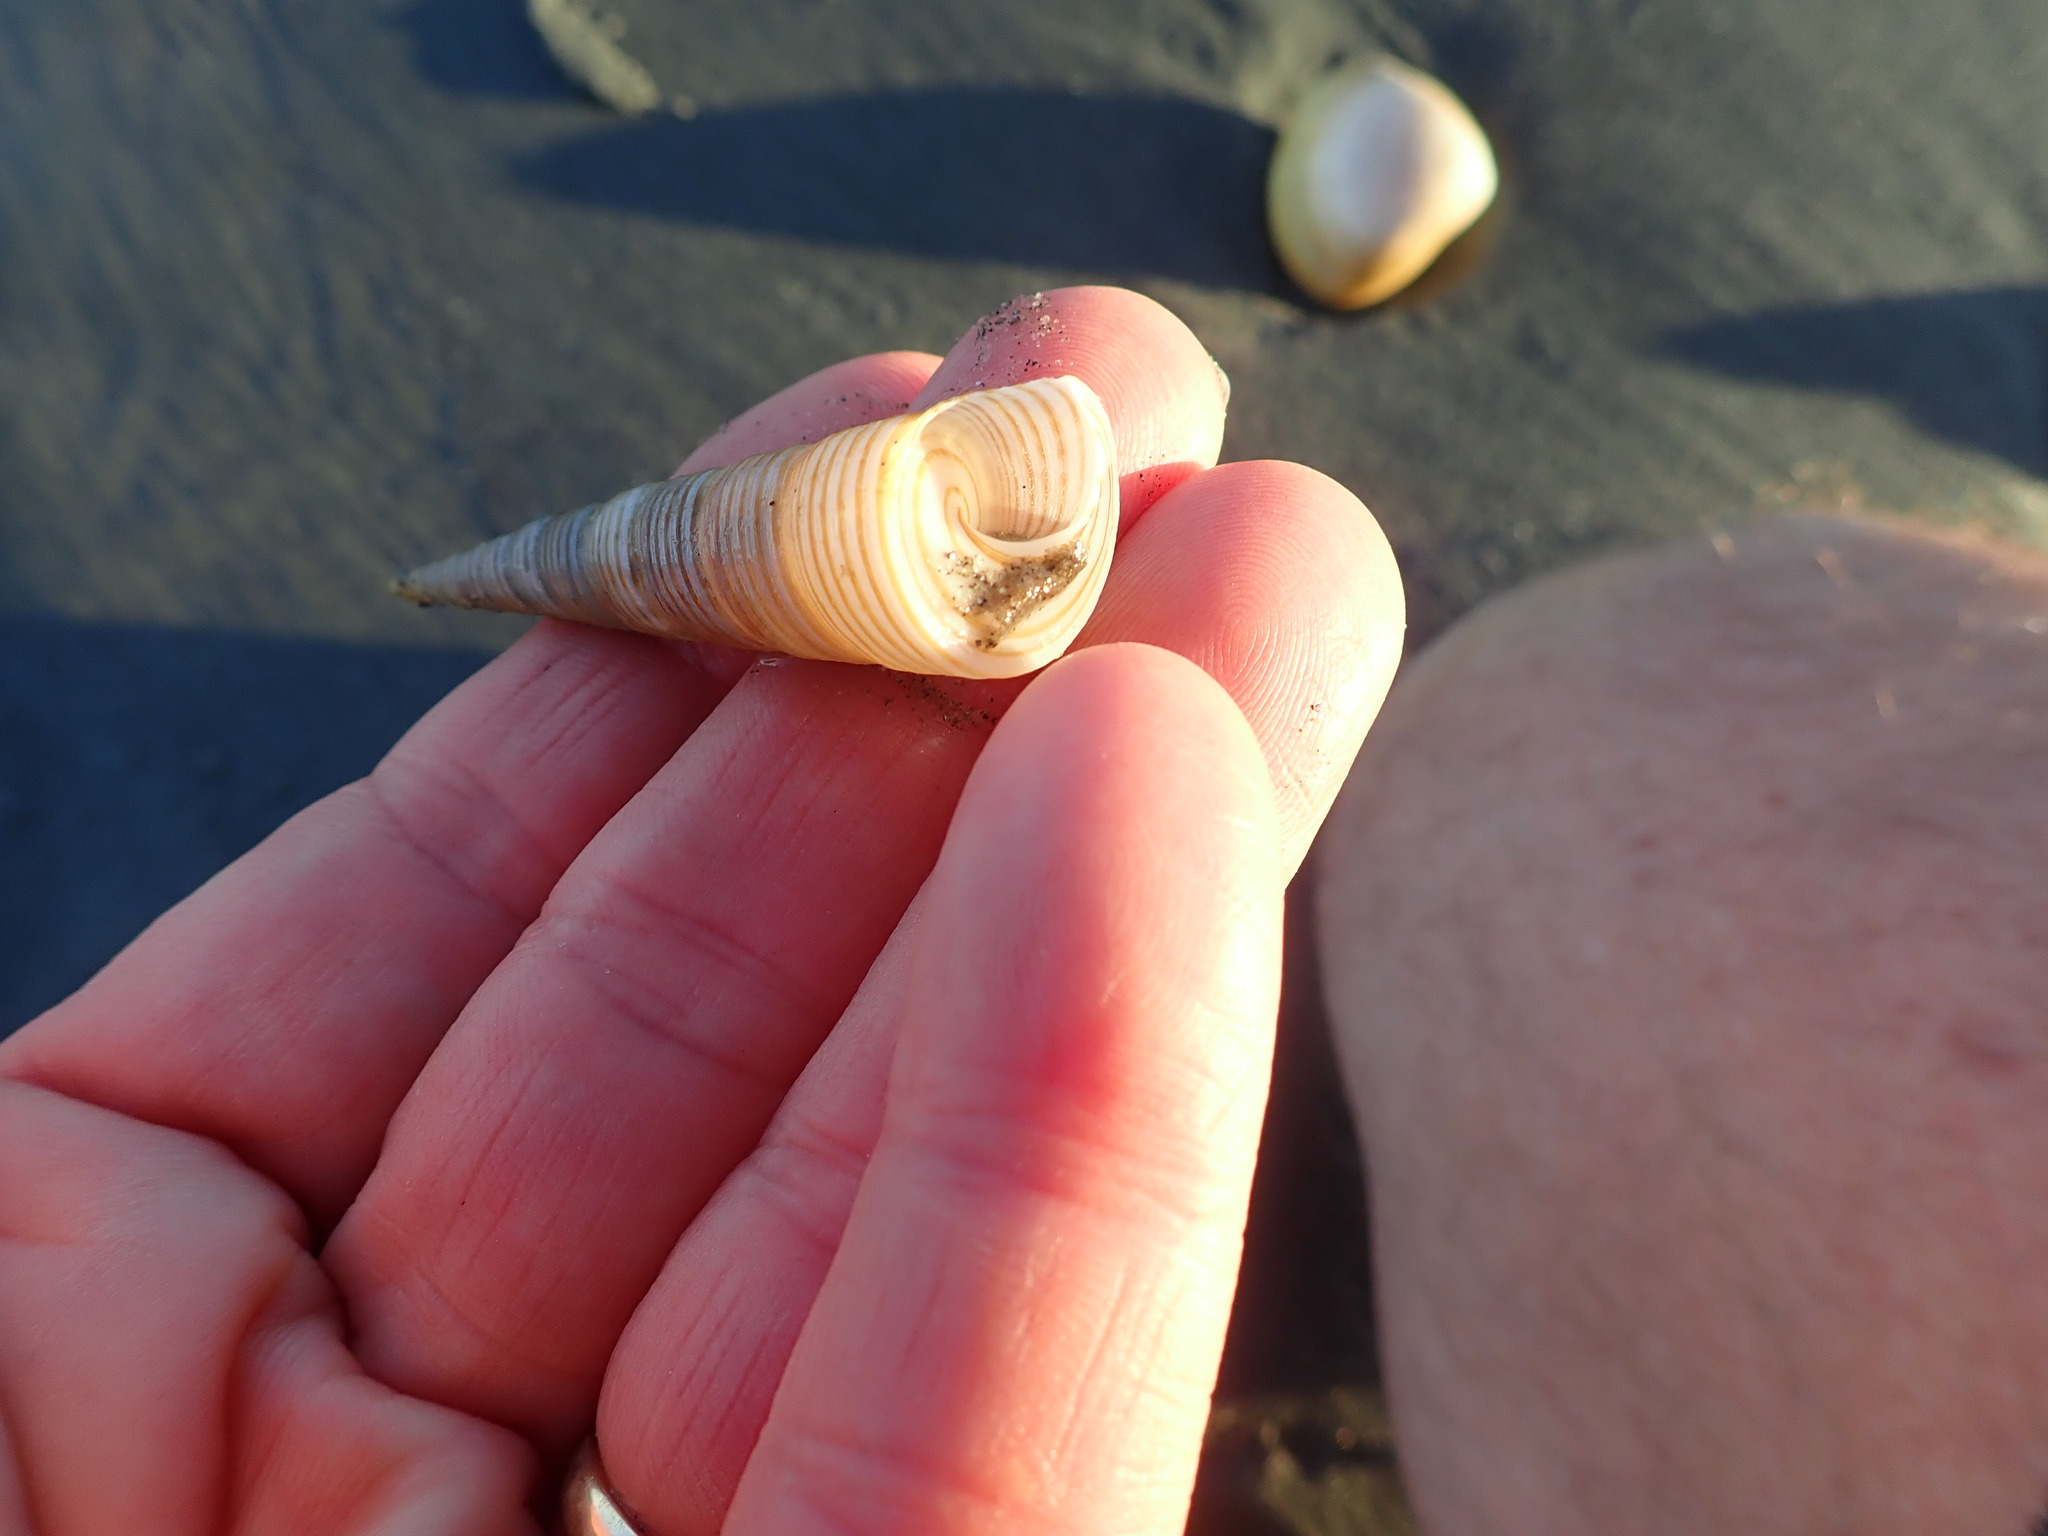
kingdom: Animalia
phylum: Mollusca
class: Gastropoda
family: Turritellidae
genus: Zeacolpus
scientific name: Zeacolpus vittatus
